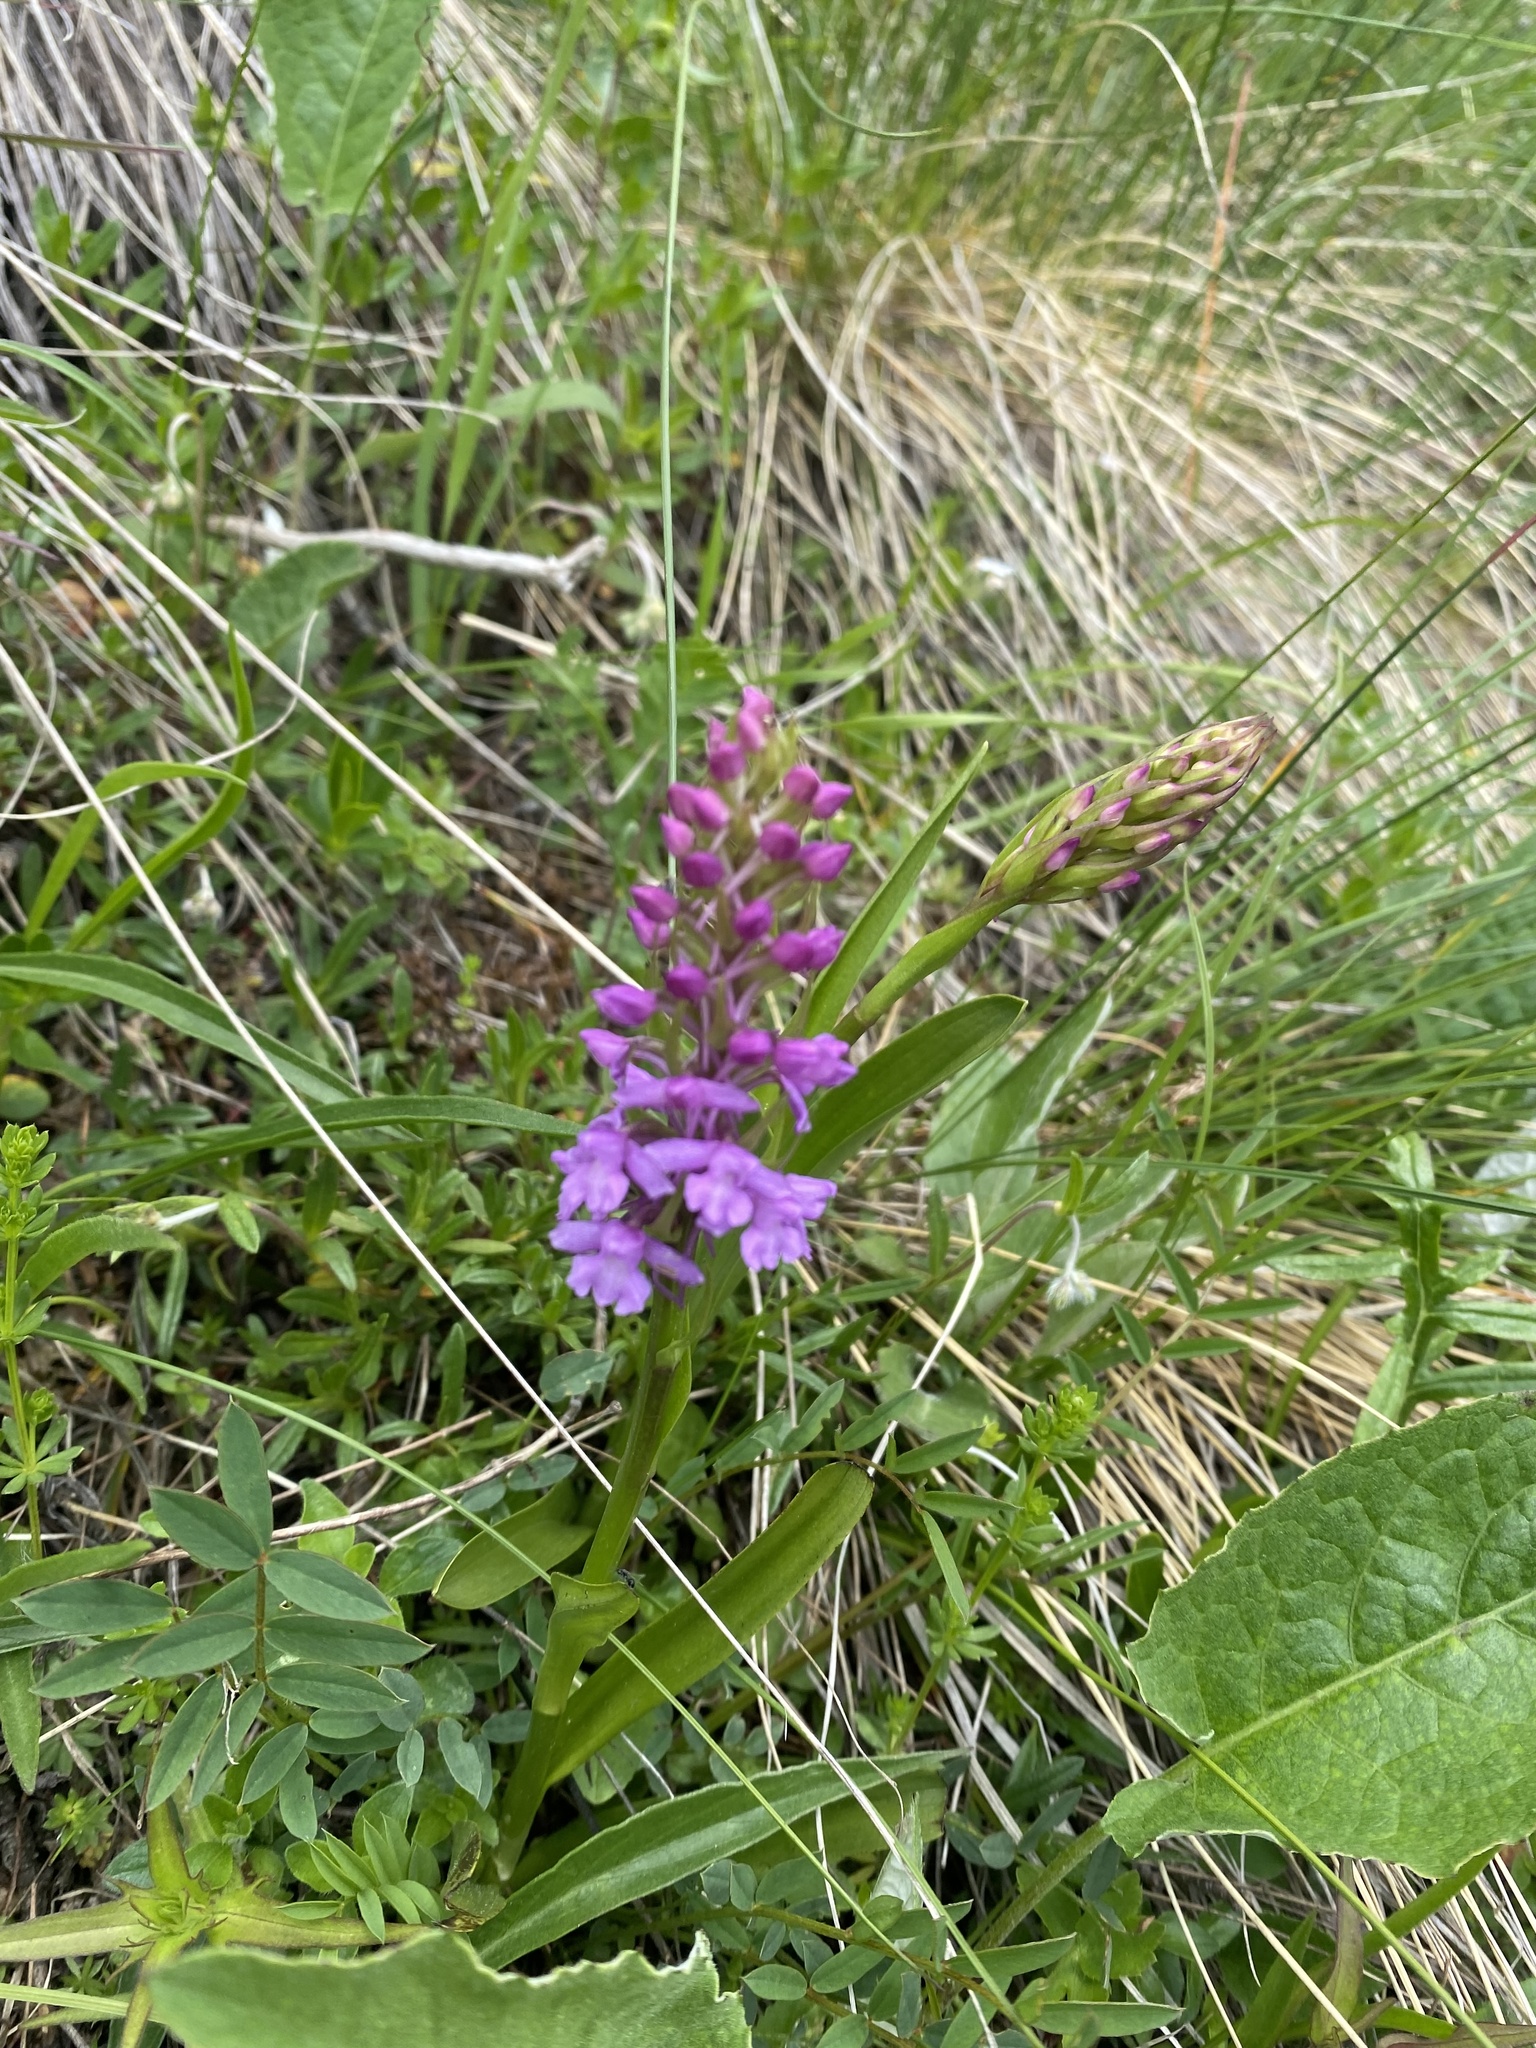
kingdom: Plantae
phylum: Tracheophyta
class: Liliopsida
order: Asparagales
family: Orchidaceae
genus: Gymnadenia
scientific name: Gymnadenia conopsea
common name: Fragrant orchid
